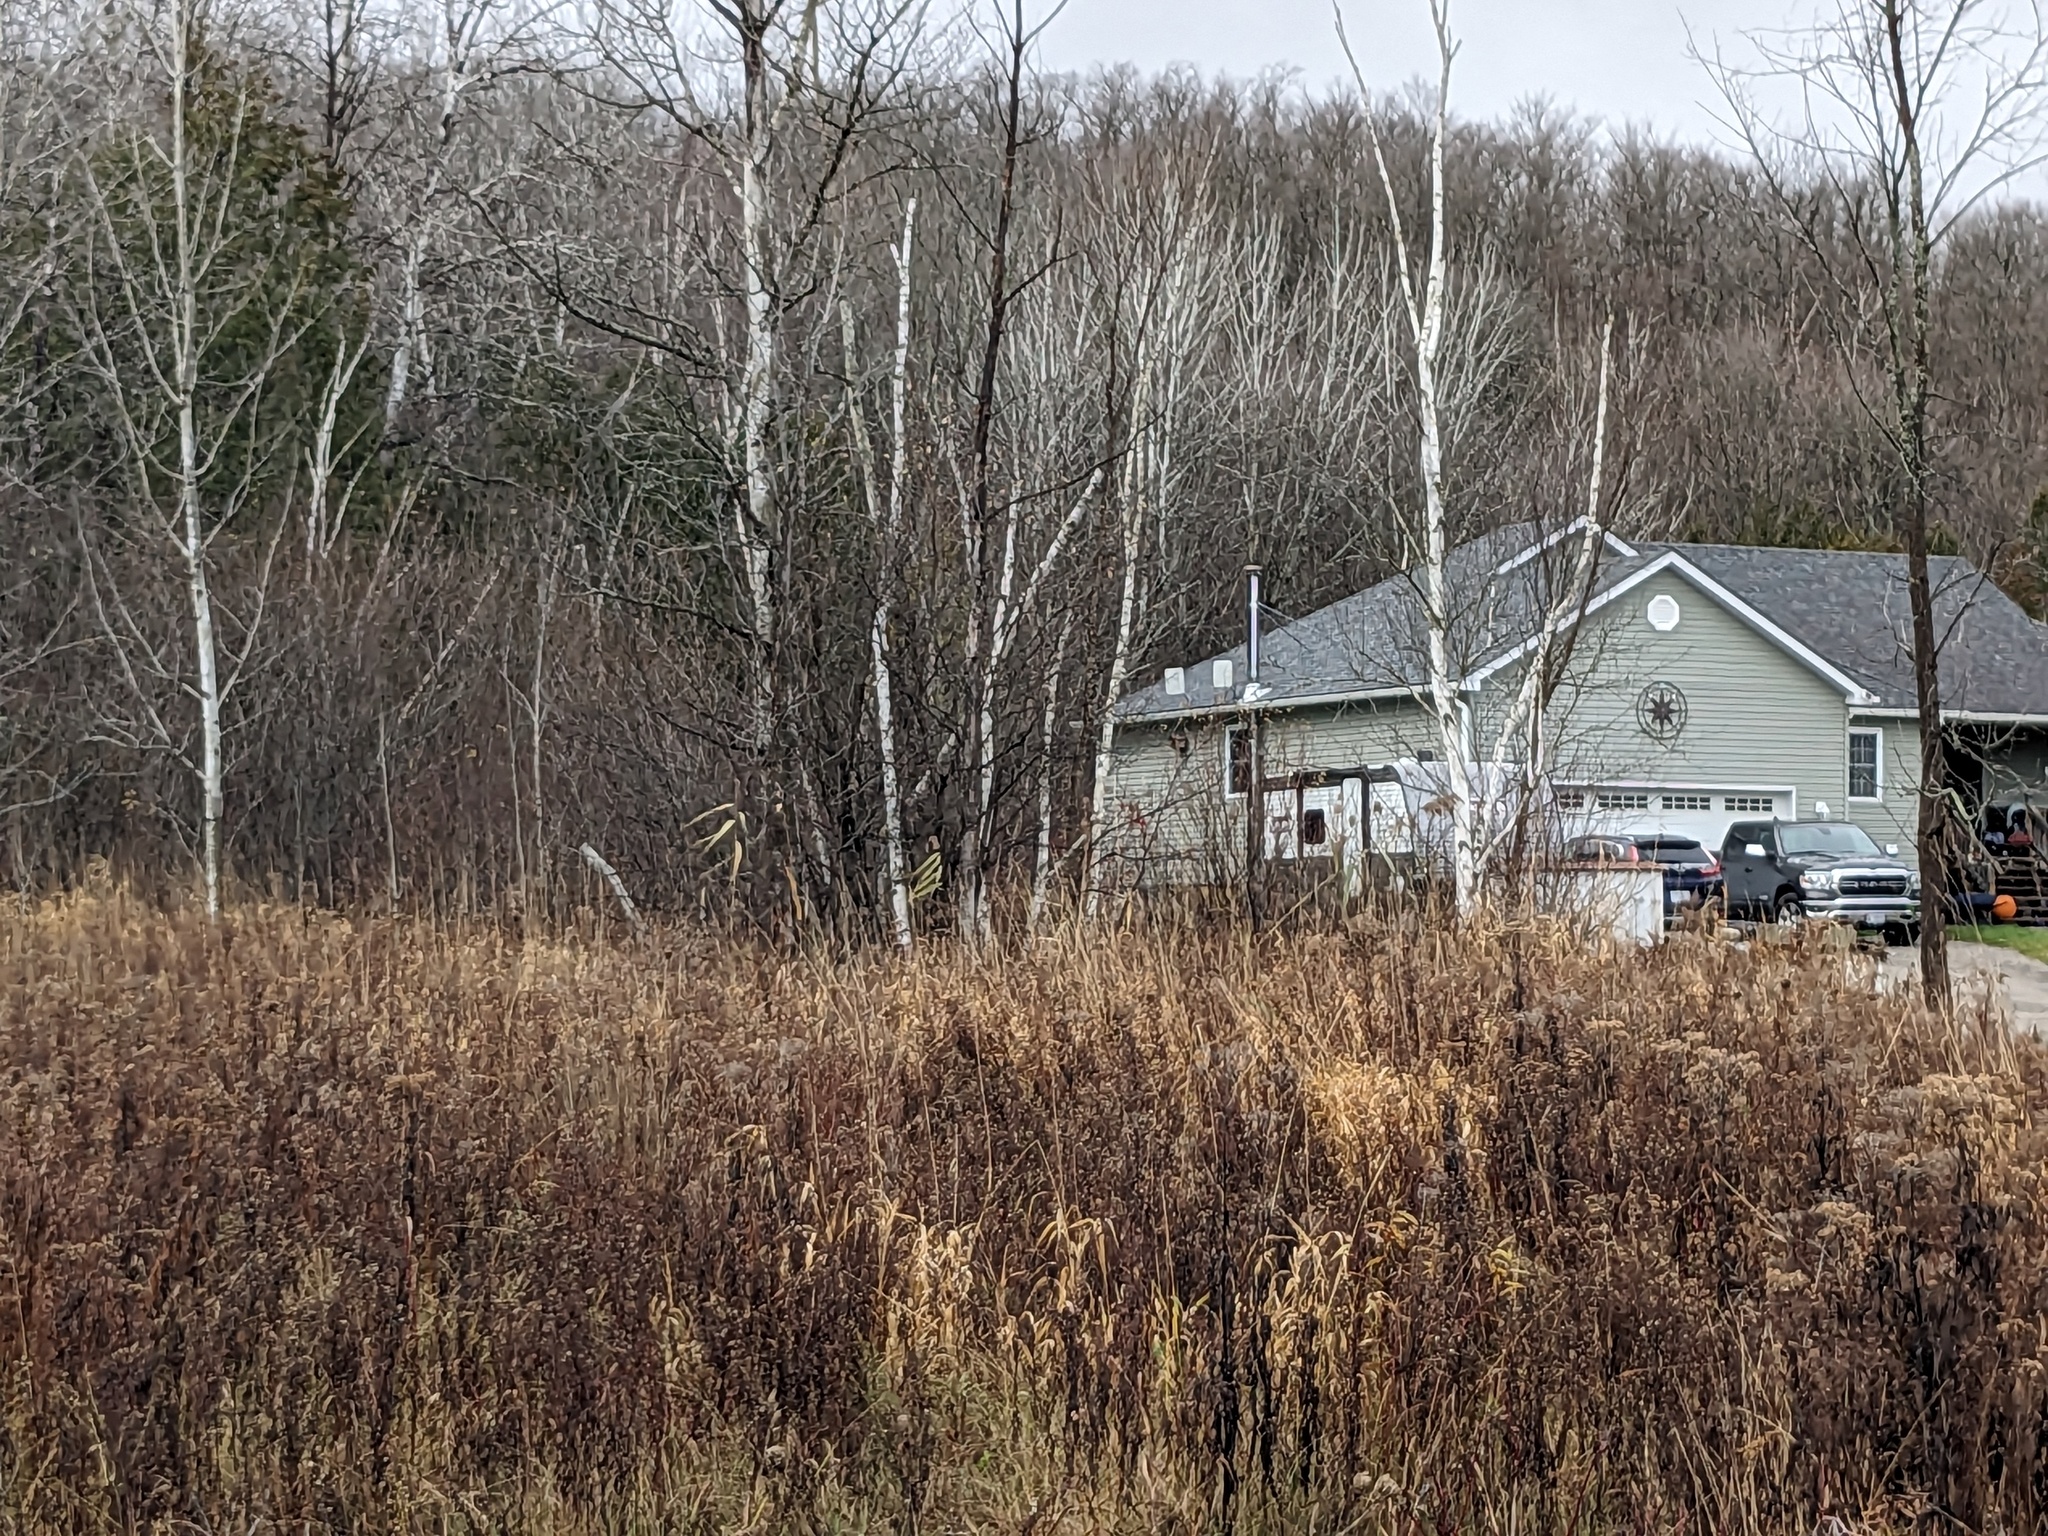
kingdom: Plantae
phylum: Tracheophyta
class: Liliopsida
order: Poales
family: Poaceae
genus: Phragmites
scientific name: Phragmites australis
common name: Common reed
